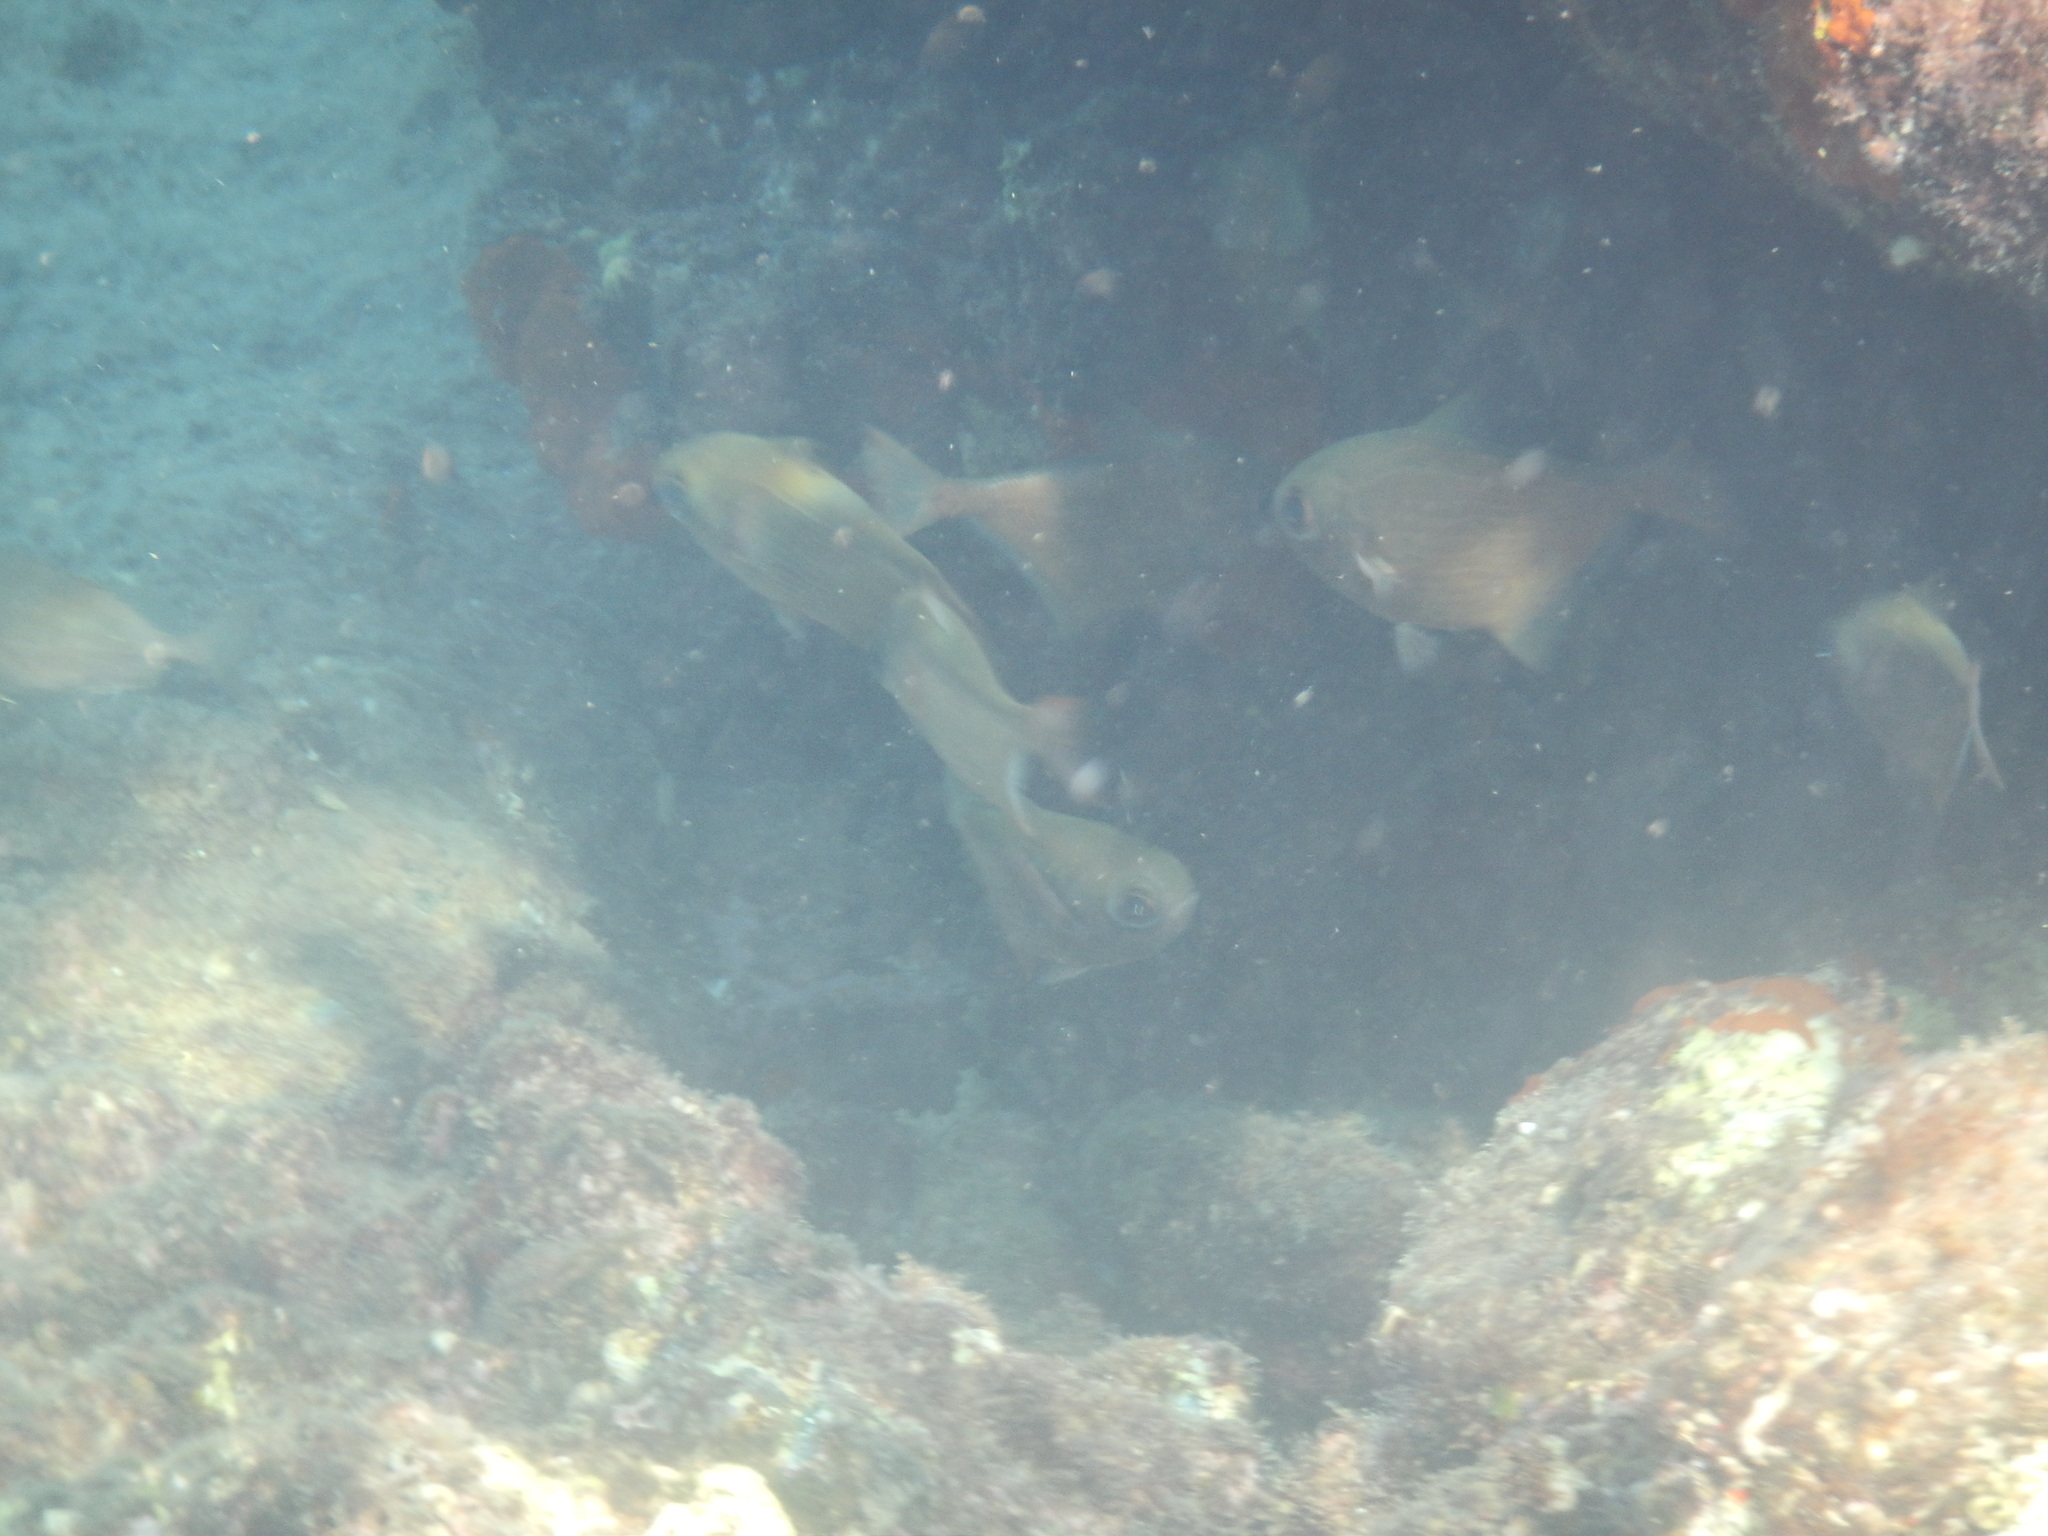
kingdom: Animalia
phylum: Chordata
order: Perciformes
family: Pempheridae
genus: Pempheris
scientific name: Pempheris rhomboidea
